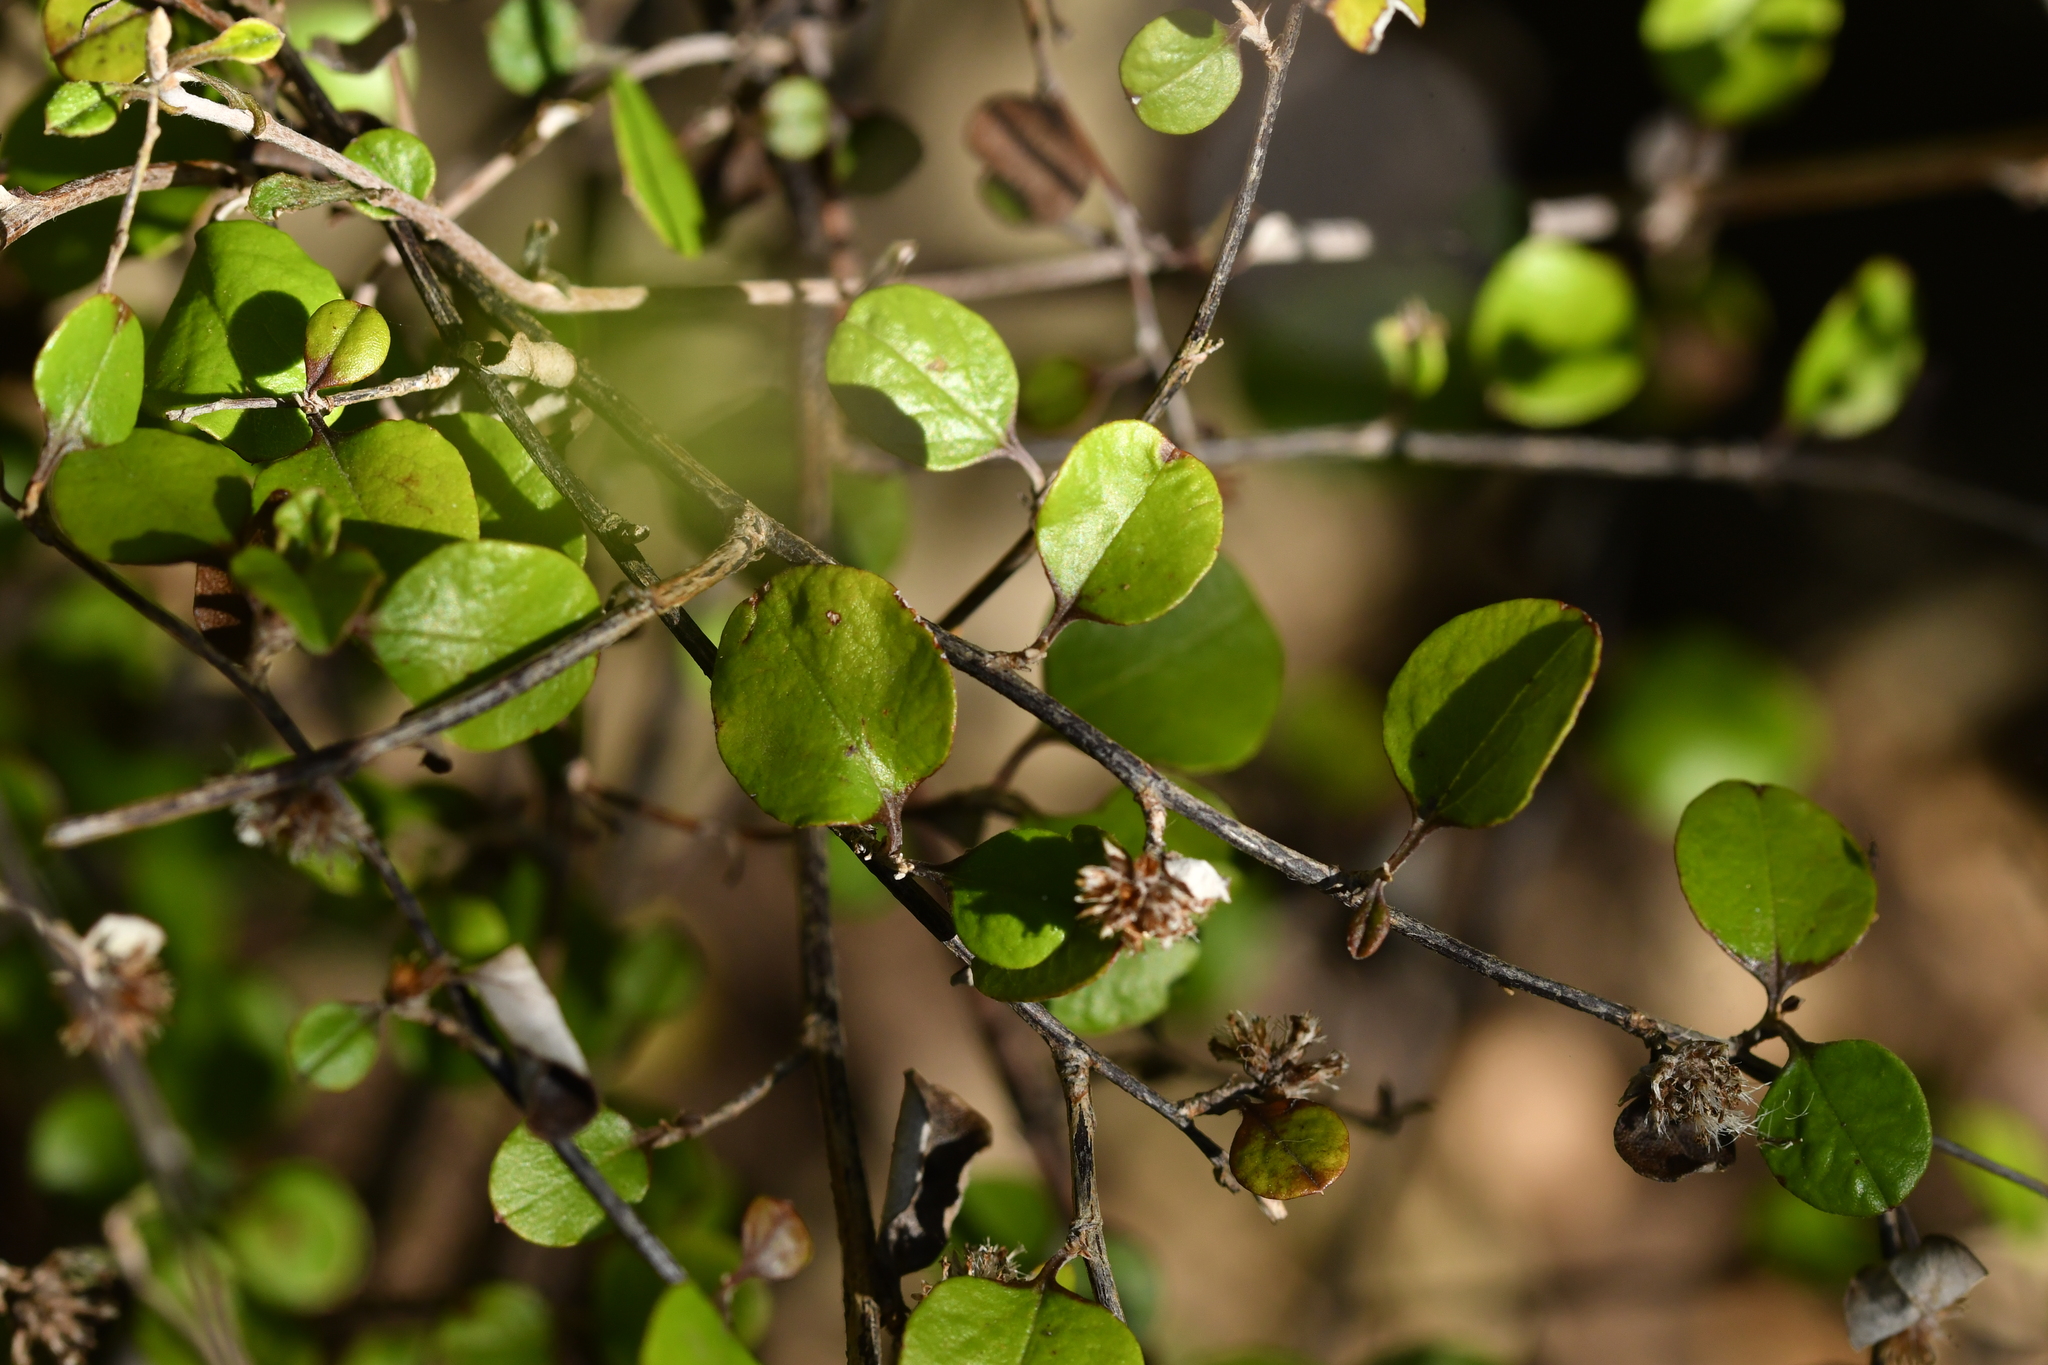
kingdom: Plantae
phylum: Tracheophyta
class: Magnoliopsida
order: Asterales
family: Asteraceae
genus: Ozothamnus
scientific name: Ozothamnus glomeratus
